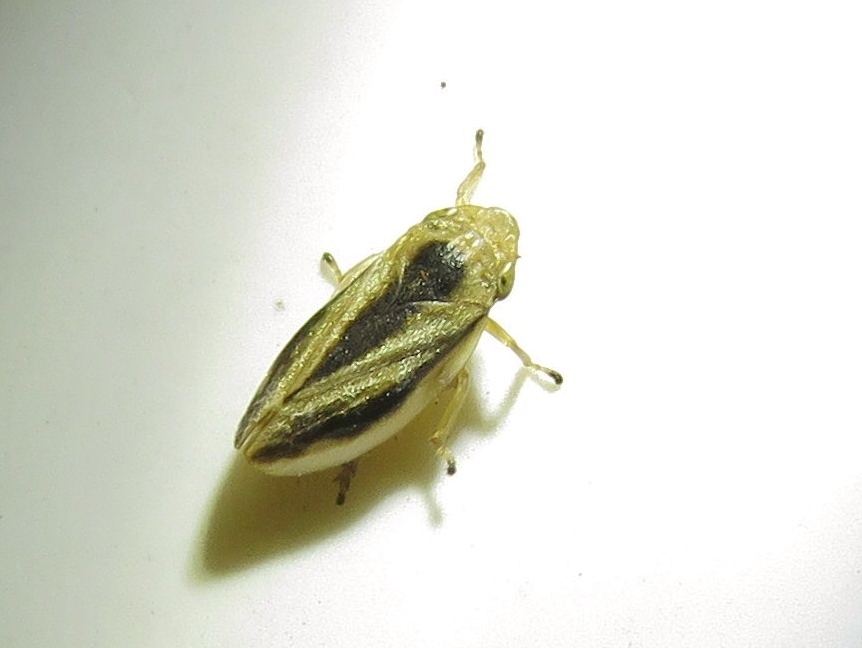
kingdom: Animalia
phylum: Arthropoda
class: Insecta
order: Hemiptera
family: Aphrophoridae
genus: Philaenus
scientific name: Philaenus spumarius
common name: Meadow spittlebug
